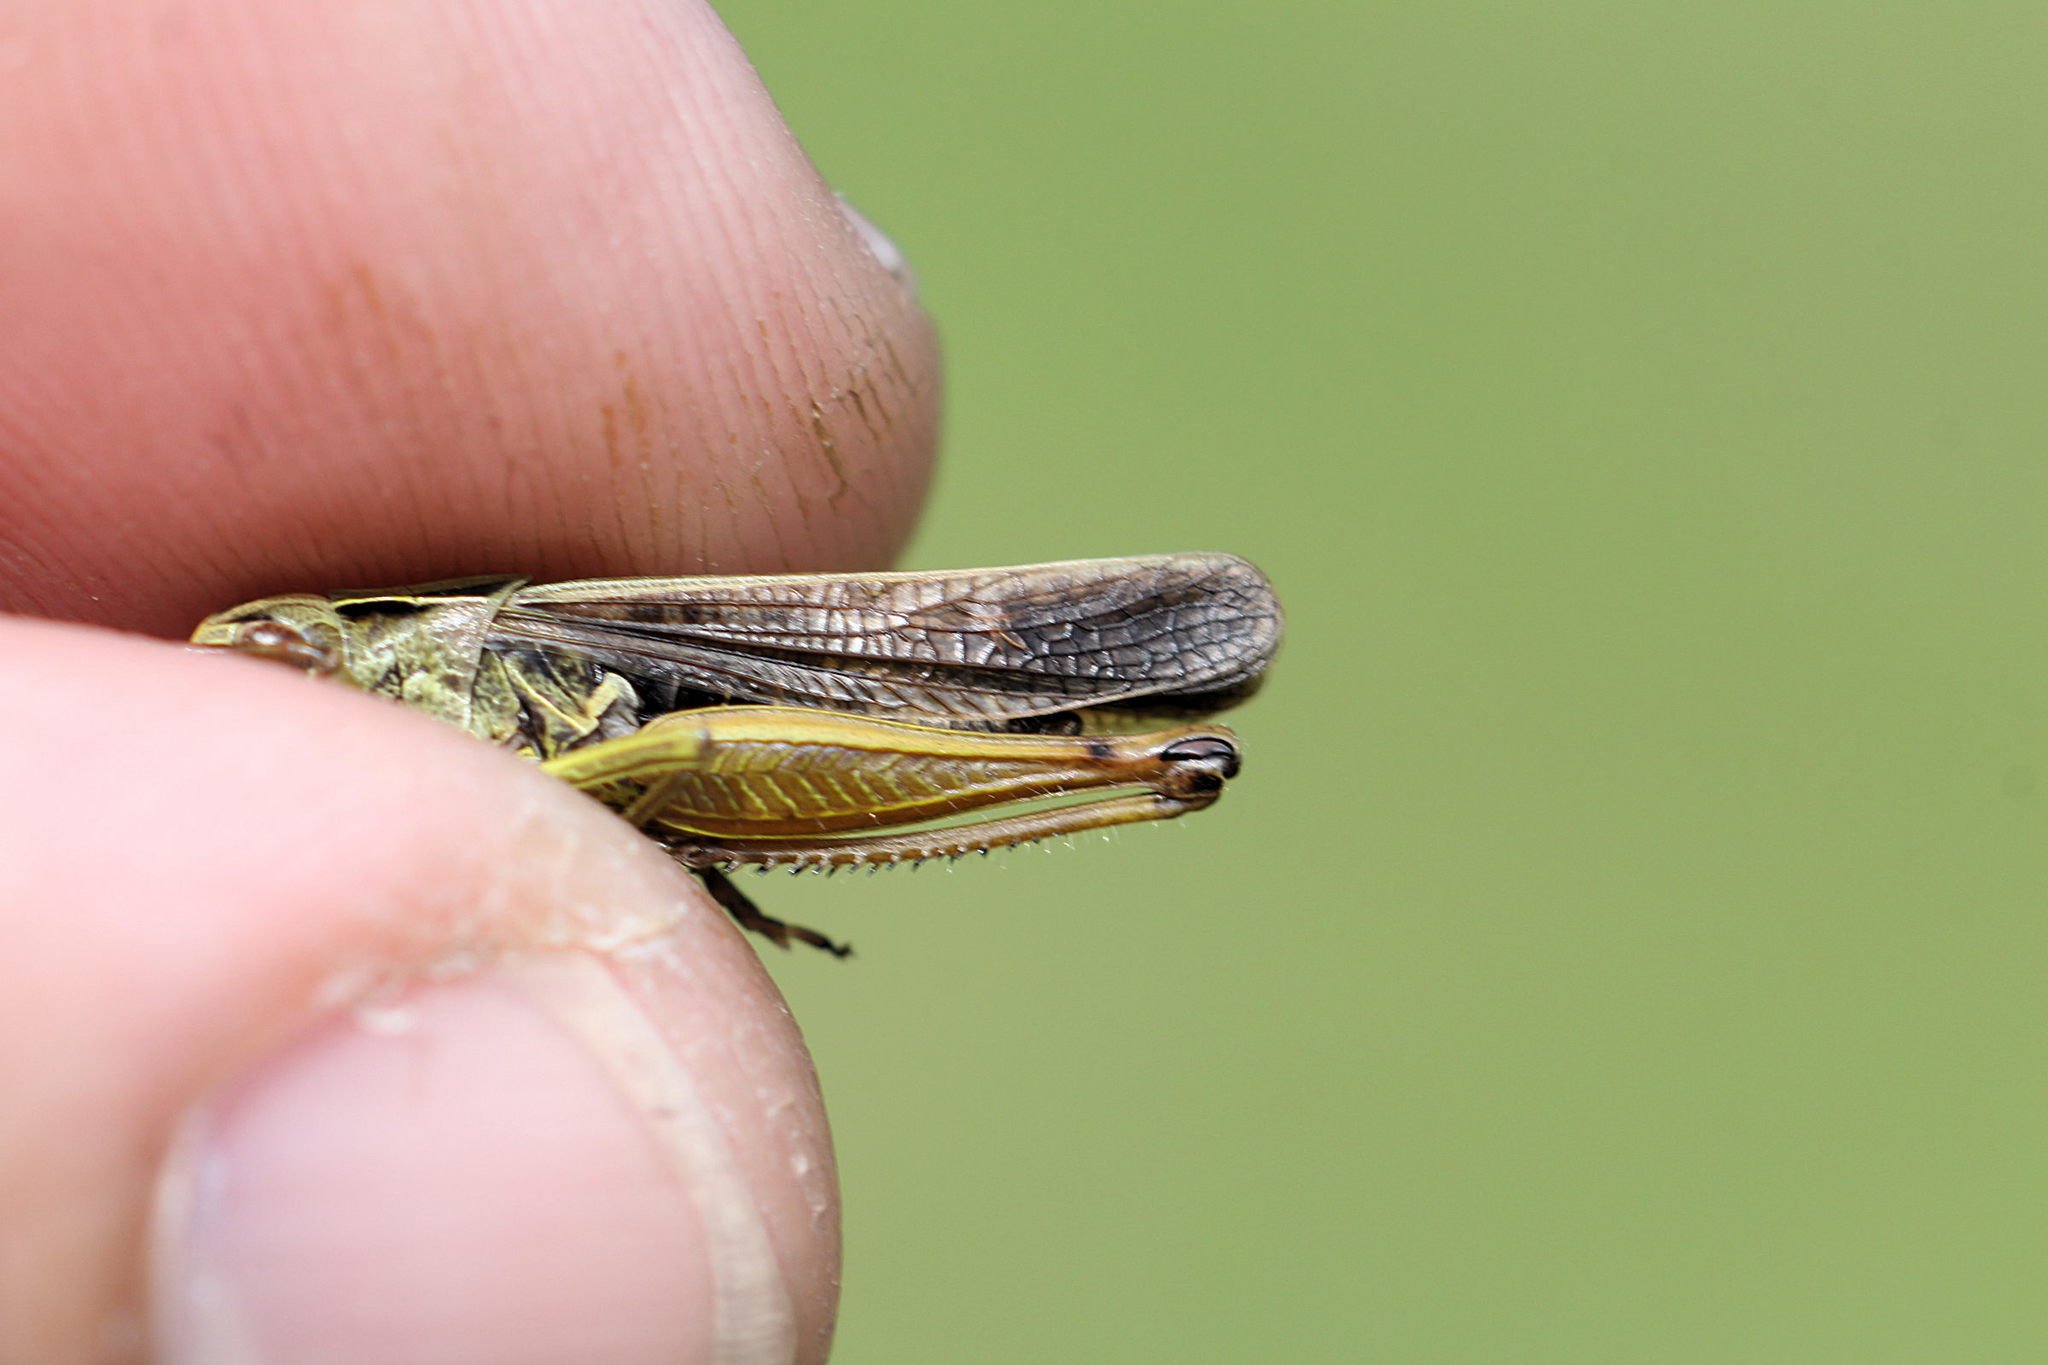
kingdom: Animalia
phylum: Arthropoda
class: Insecta
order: Orthoptera
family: Acrididae
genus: Omocestus
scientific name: Omocestus viridulus
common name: Common green grasshopper
